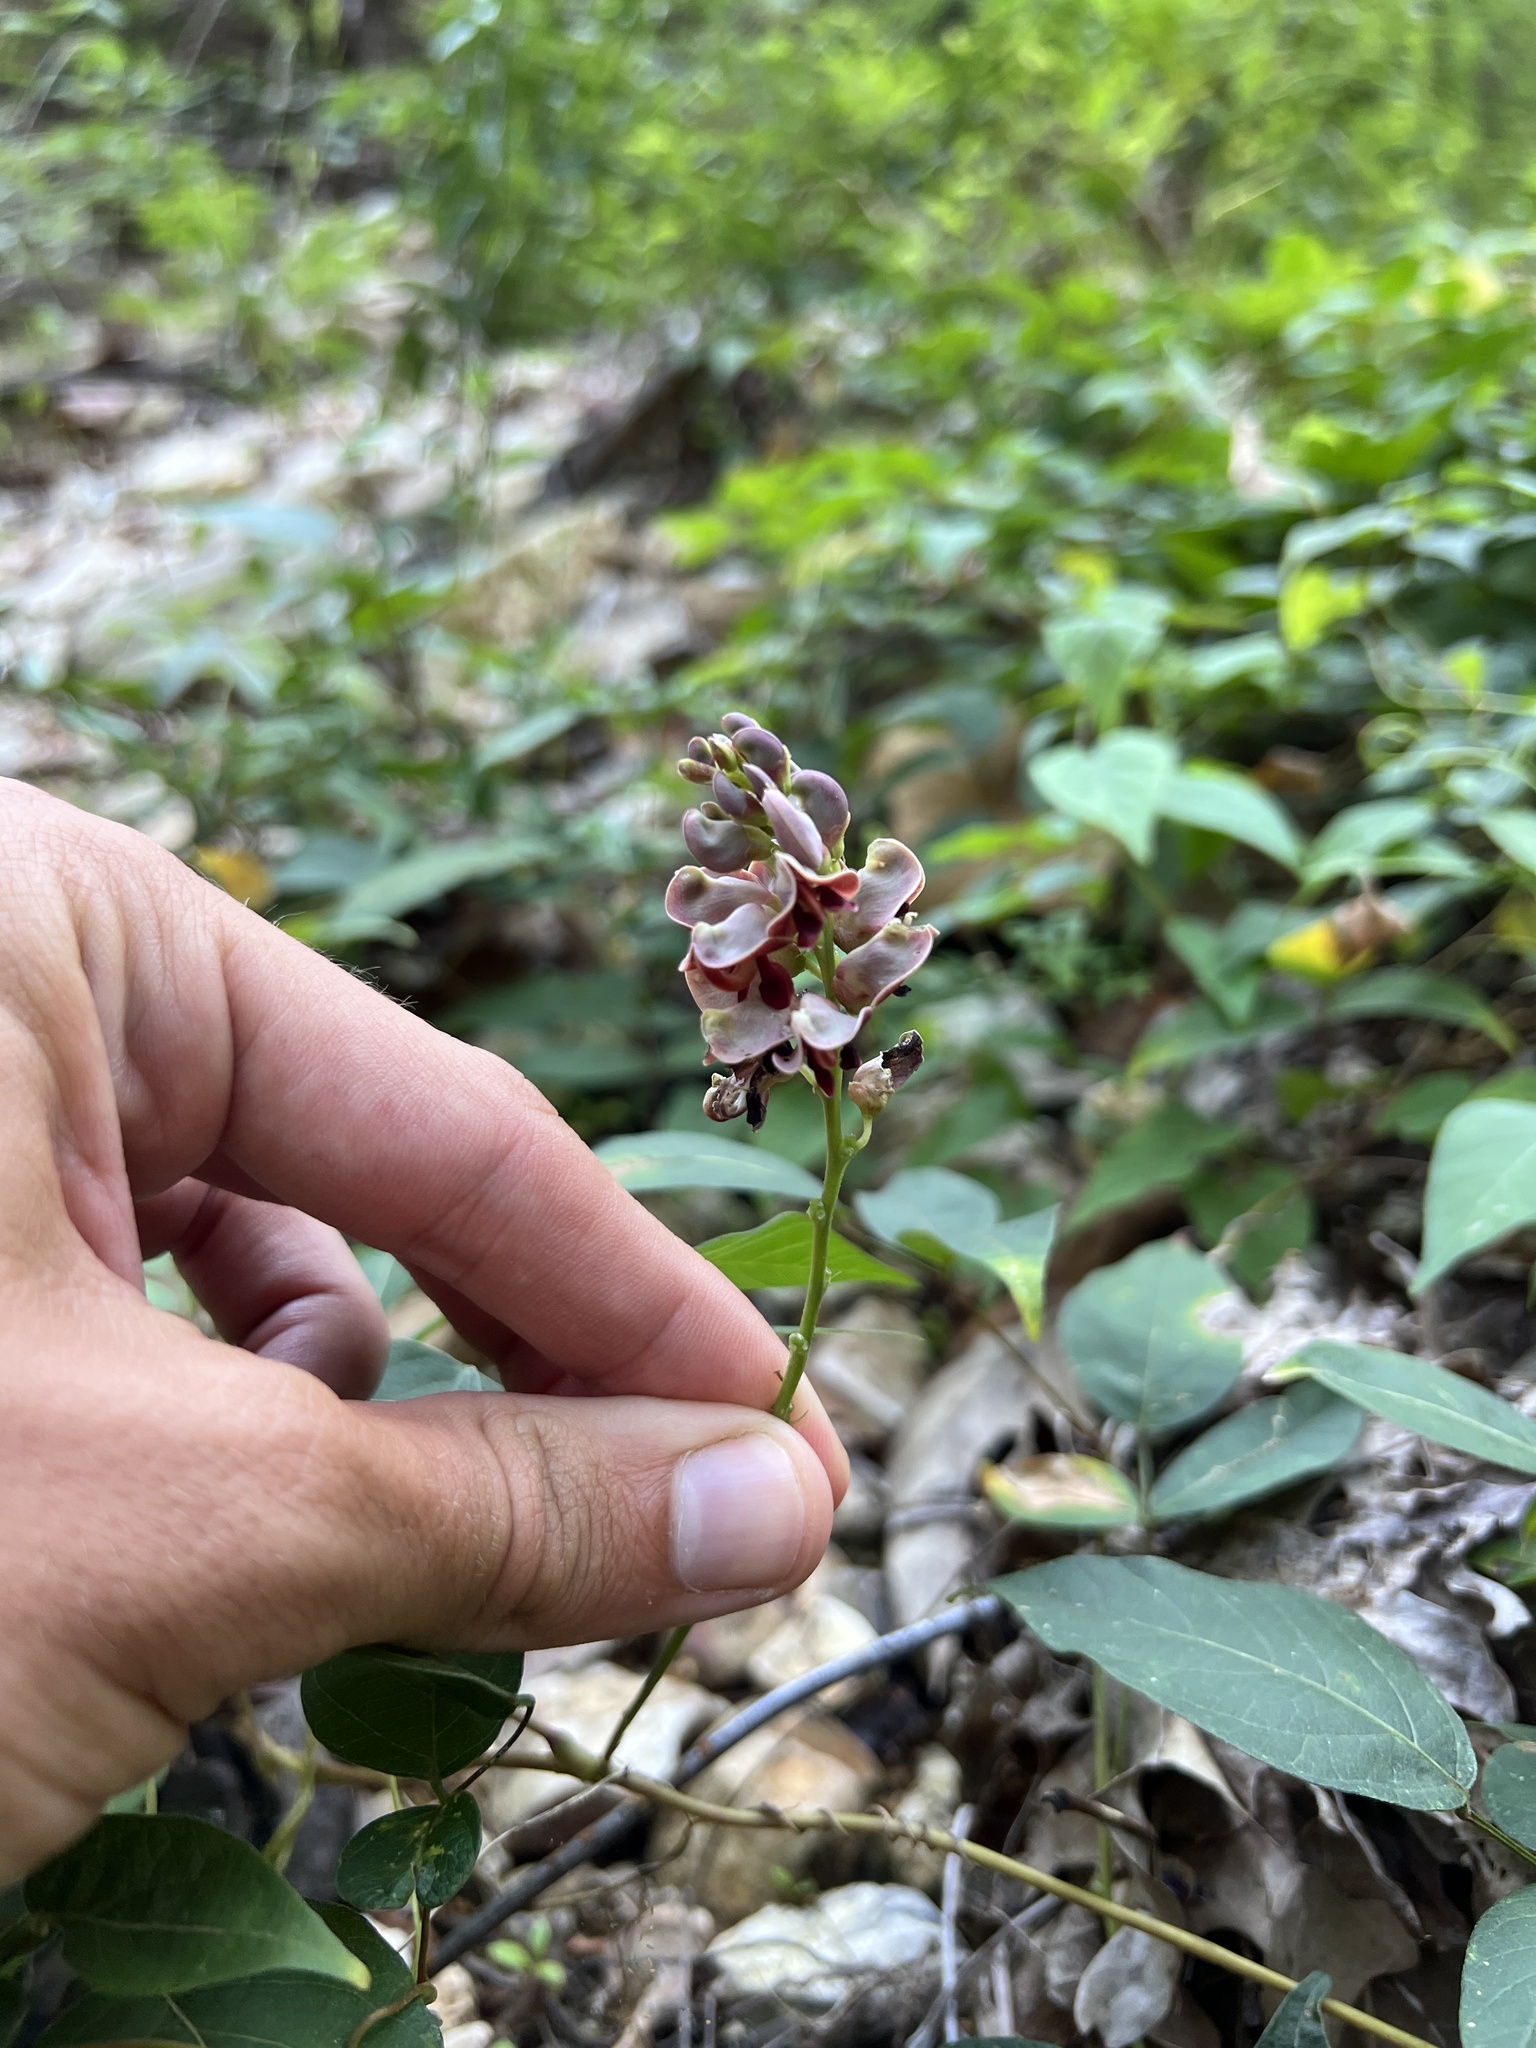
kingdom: Plantae
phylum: Tracheophyta
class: Magnoliopsida
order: Fabales
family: Fabaceae
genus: Apios
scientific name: Apios americana
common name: American potato-bean
